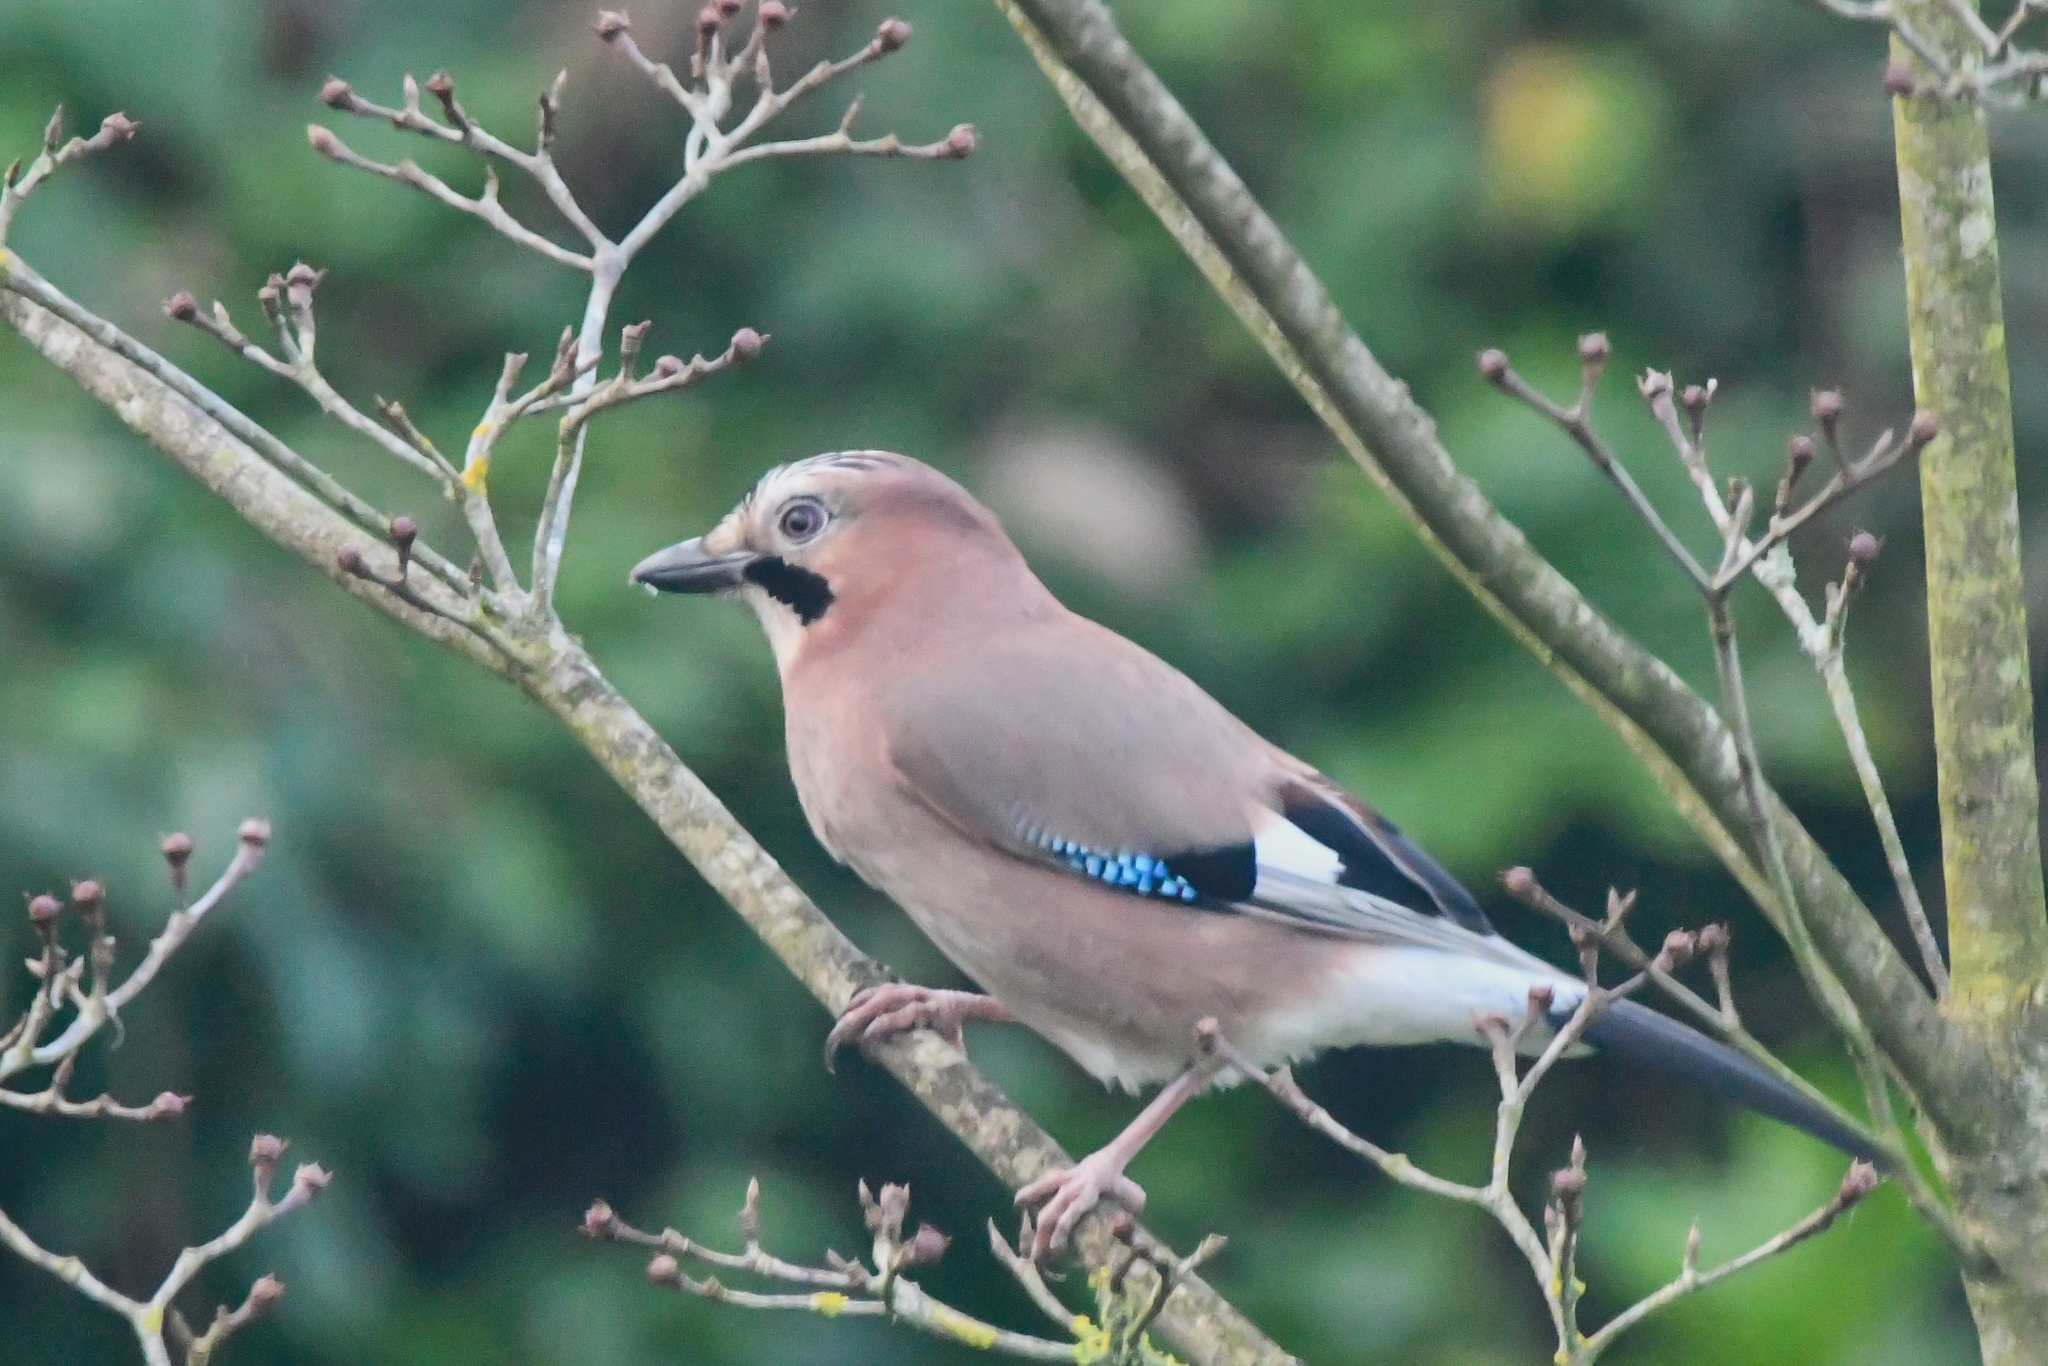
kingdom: Animalia
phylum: Chordata
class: Aves
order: Passeriformes
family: Corvidae
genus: Garrulus
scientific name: Garrulus glandarius
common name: Eurasian jay
